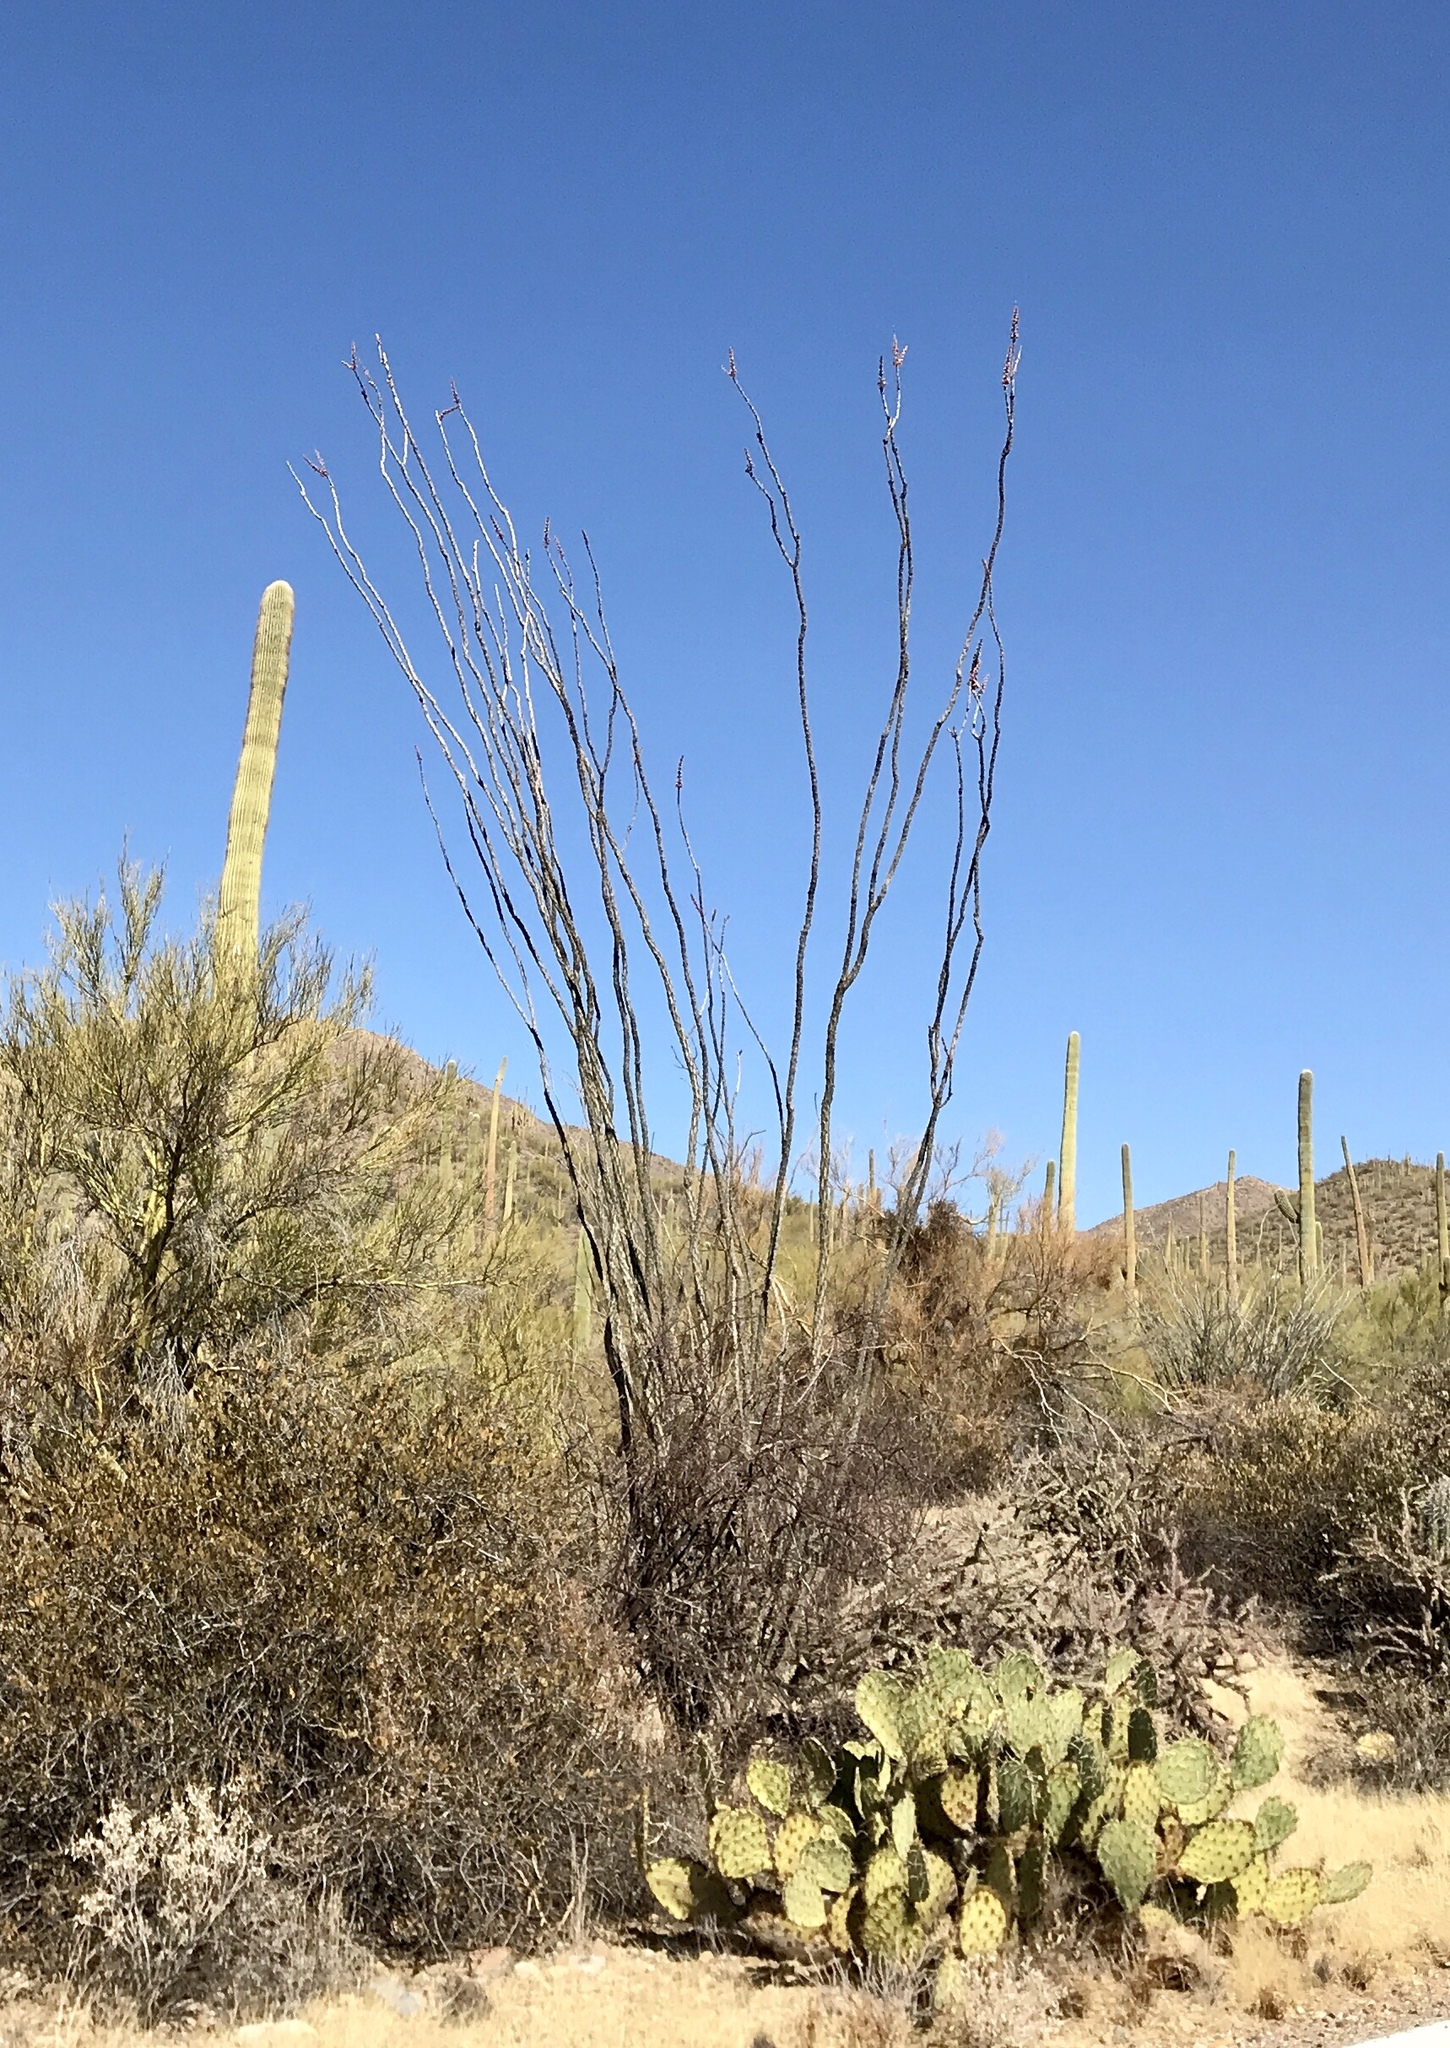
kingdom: Plantae
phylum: Tracheophyta
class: Magnoliopsida
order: Ericales
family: Fouquieriaceae
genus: Fouquieria
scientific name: Fouquieria splendens
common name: Vine-cactus
